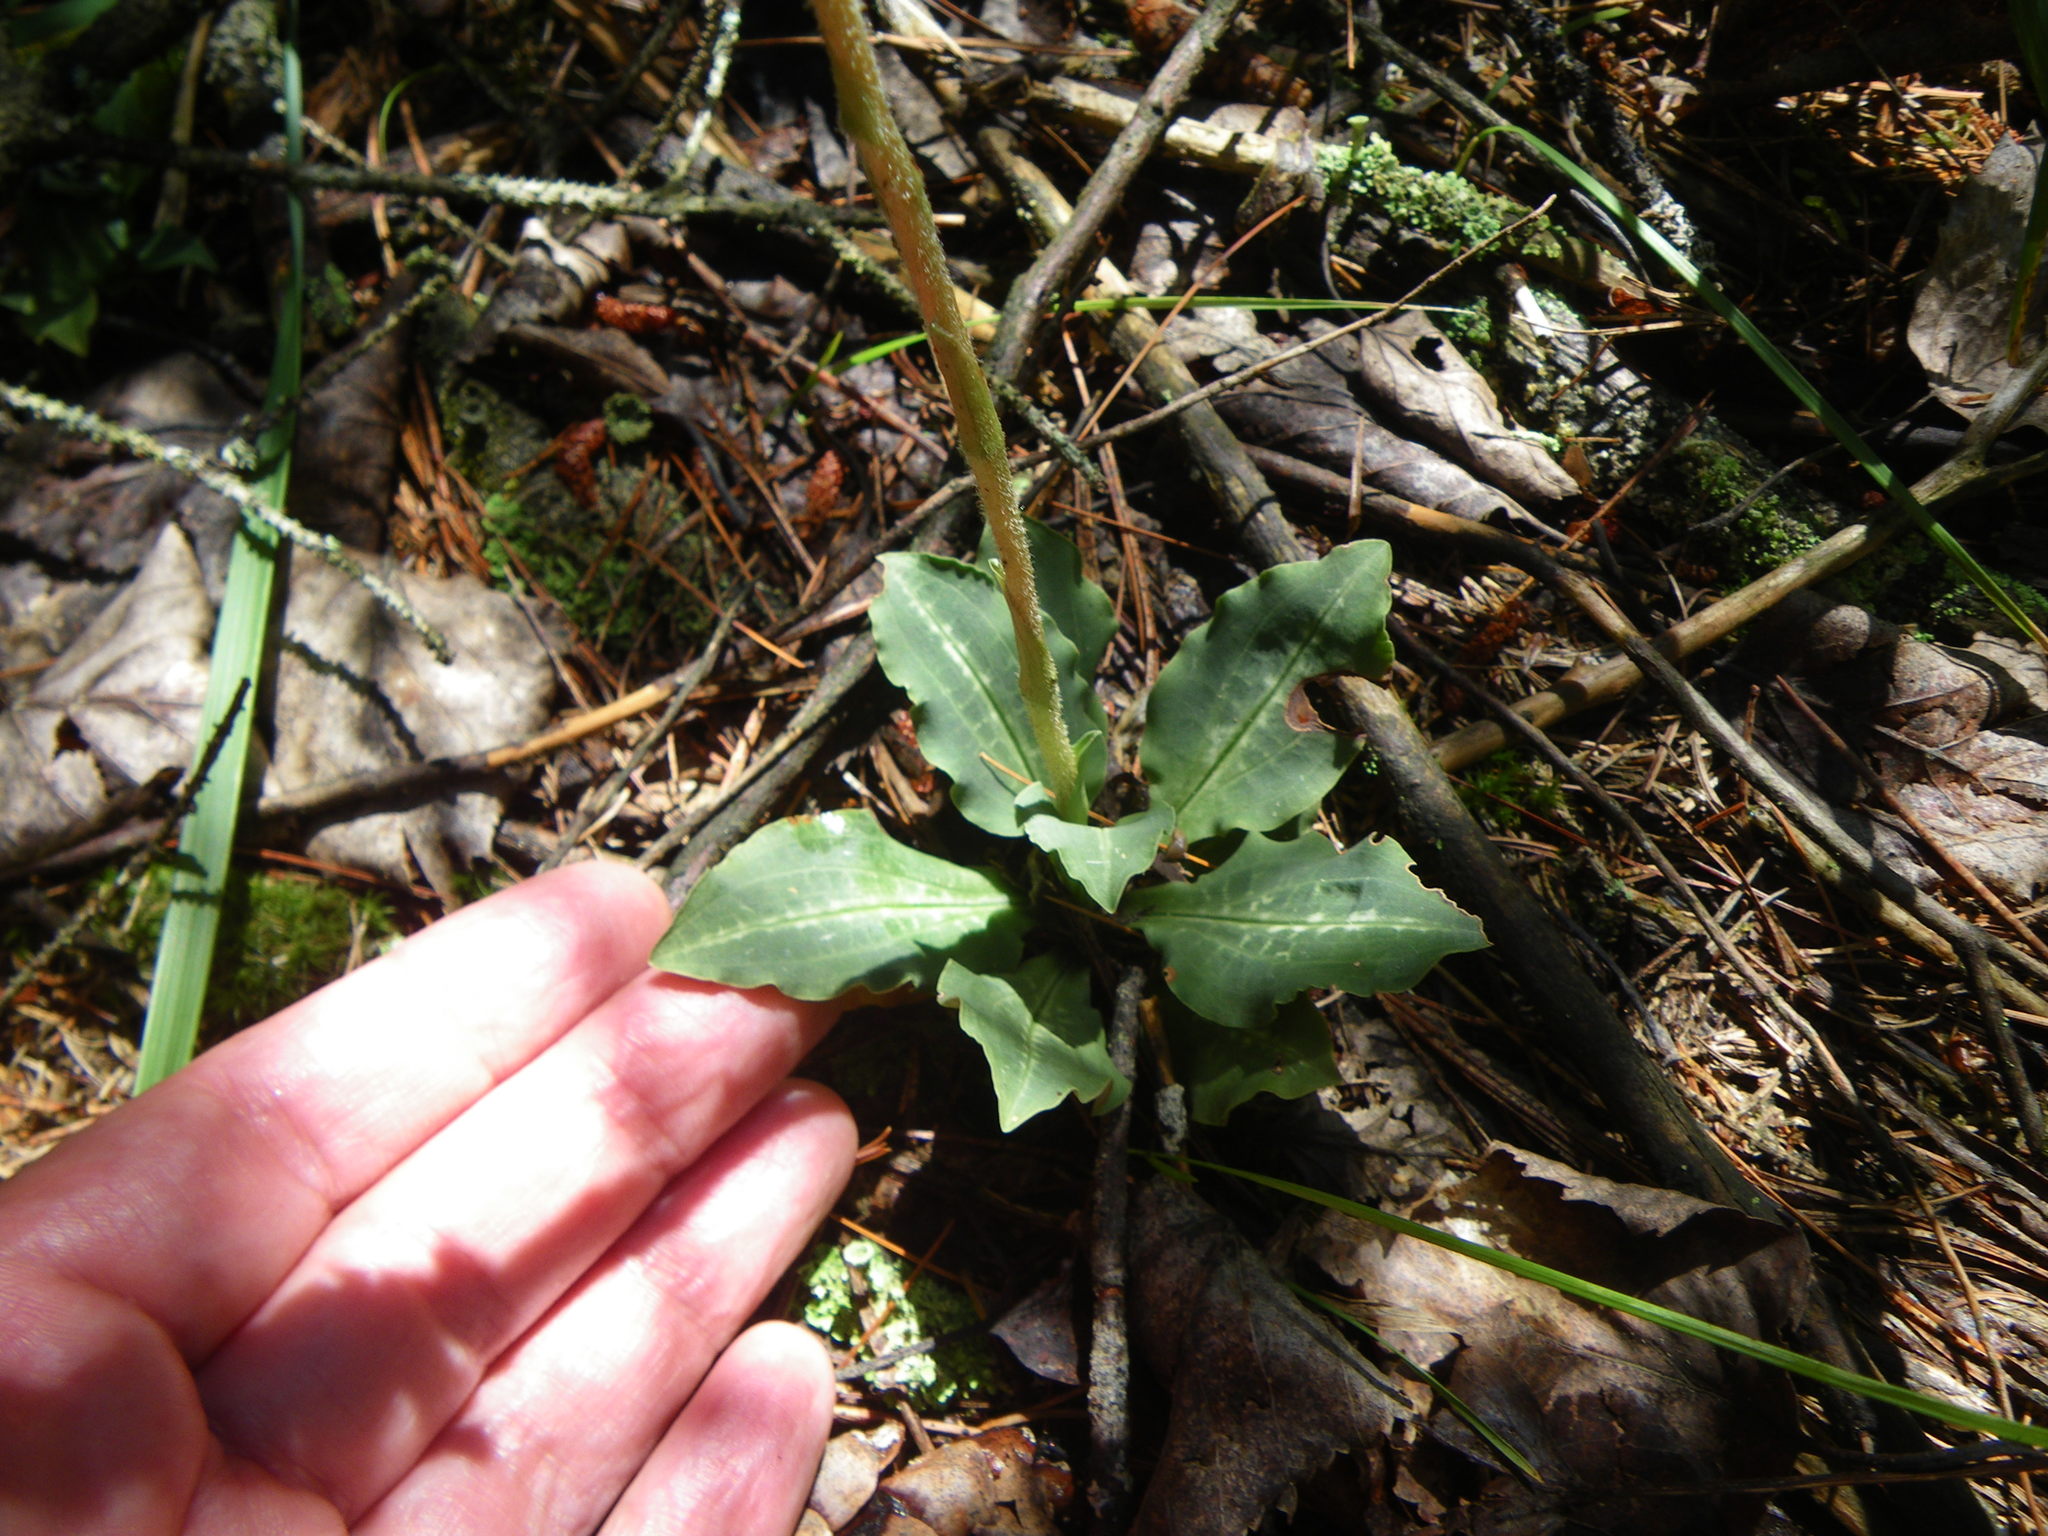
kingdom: Plantae
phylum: Tracheophyta
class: Liliopsida
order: Asparagales
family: Orchidaceae
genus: Goodyera
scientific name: Goodyera oblongifolia
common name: Giant rattlesnake-plantain
